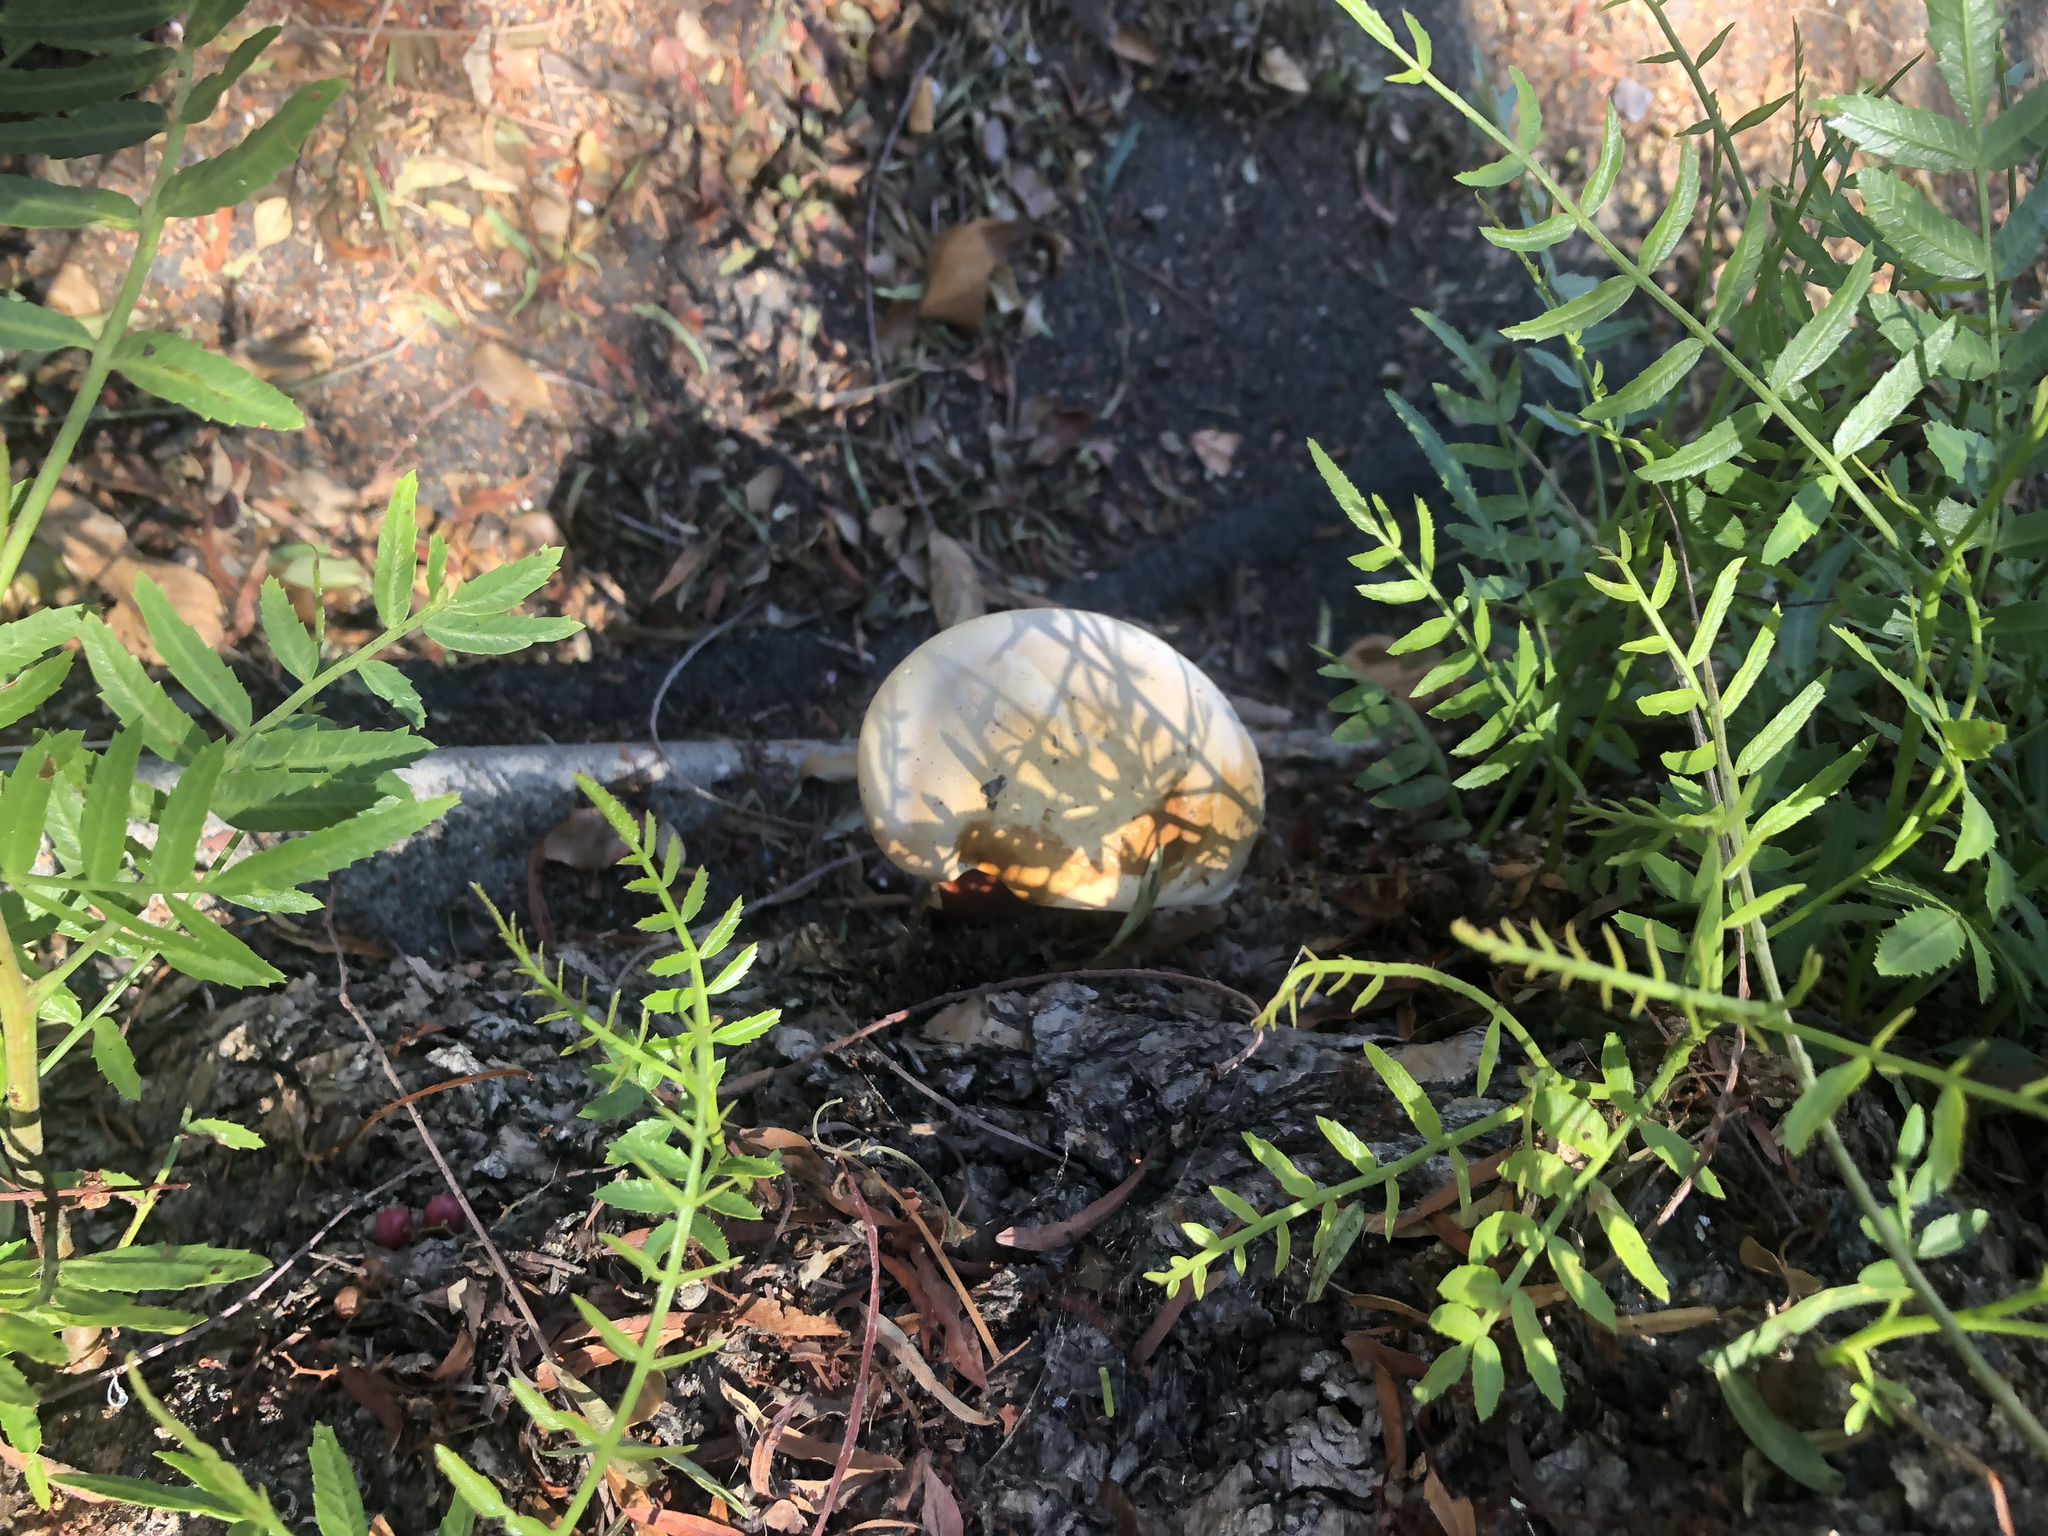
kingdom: Fungi
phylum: Basidiomycota
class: Agaricomycetes
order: Polyporales
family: Polyporaceae
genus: Ganoderma
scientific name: Ganoderma polychromum
